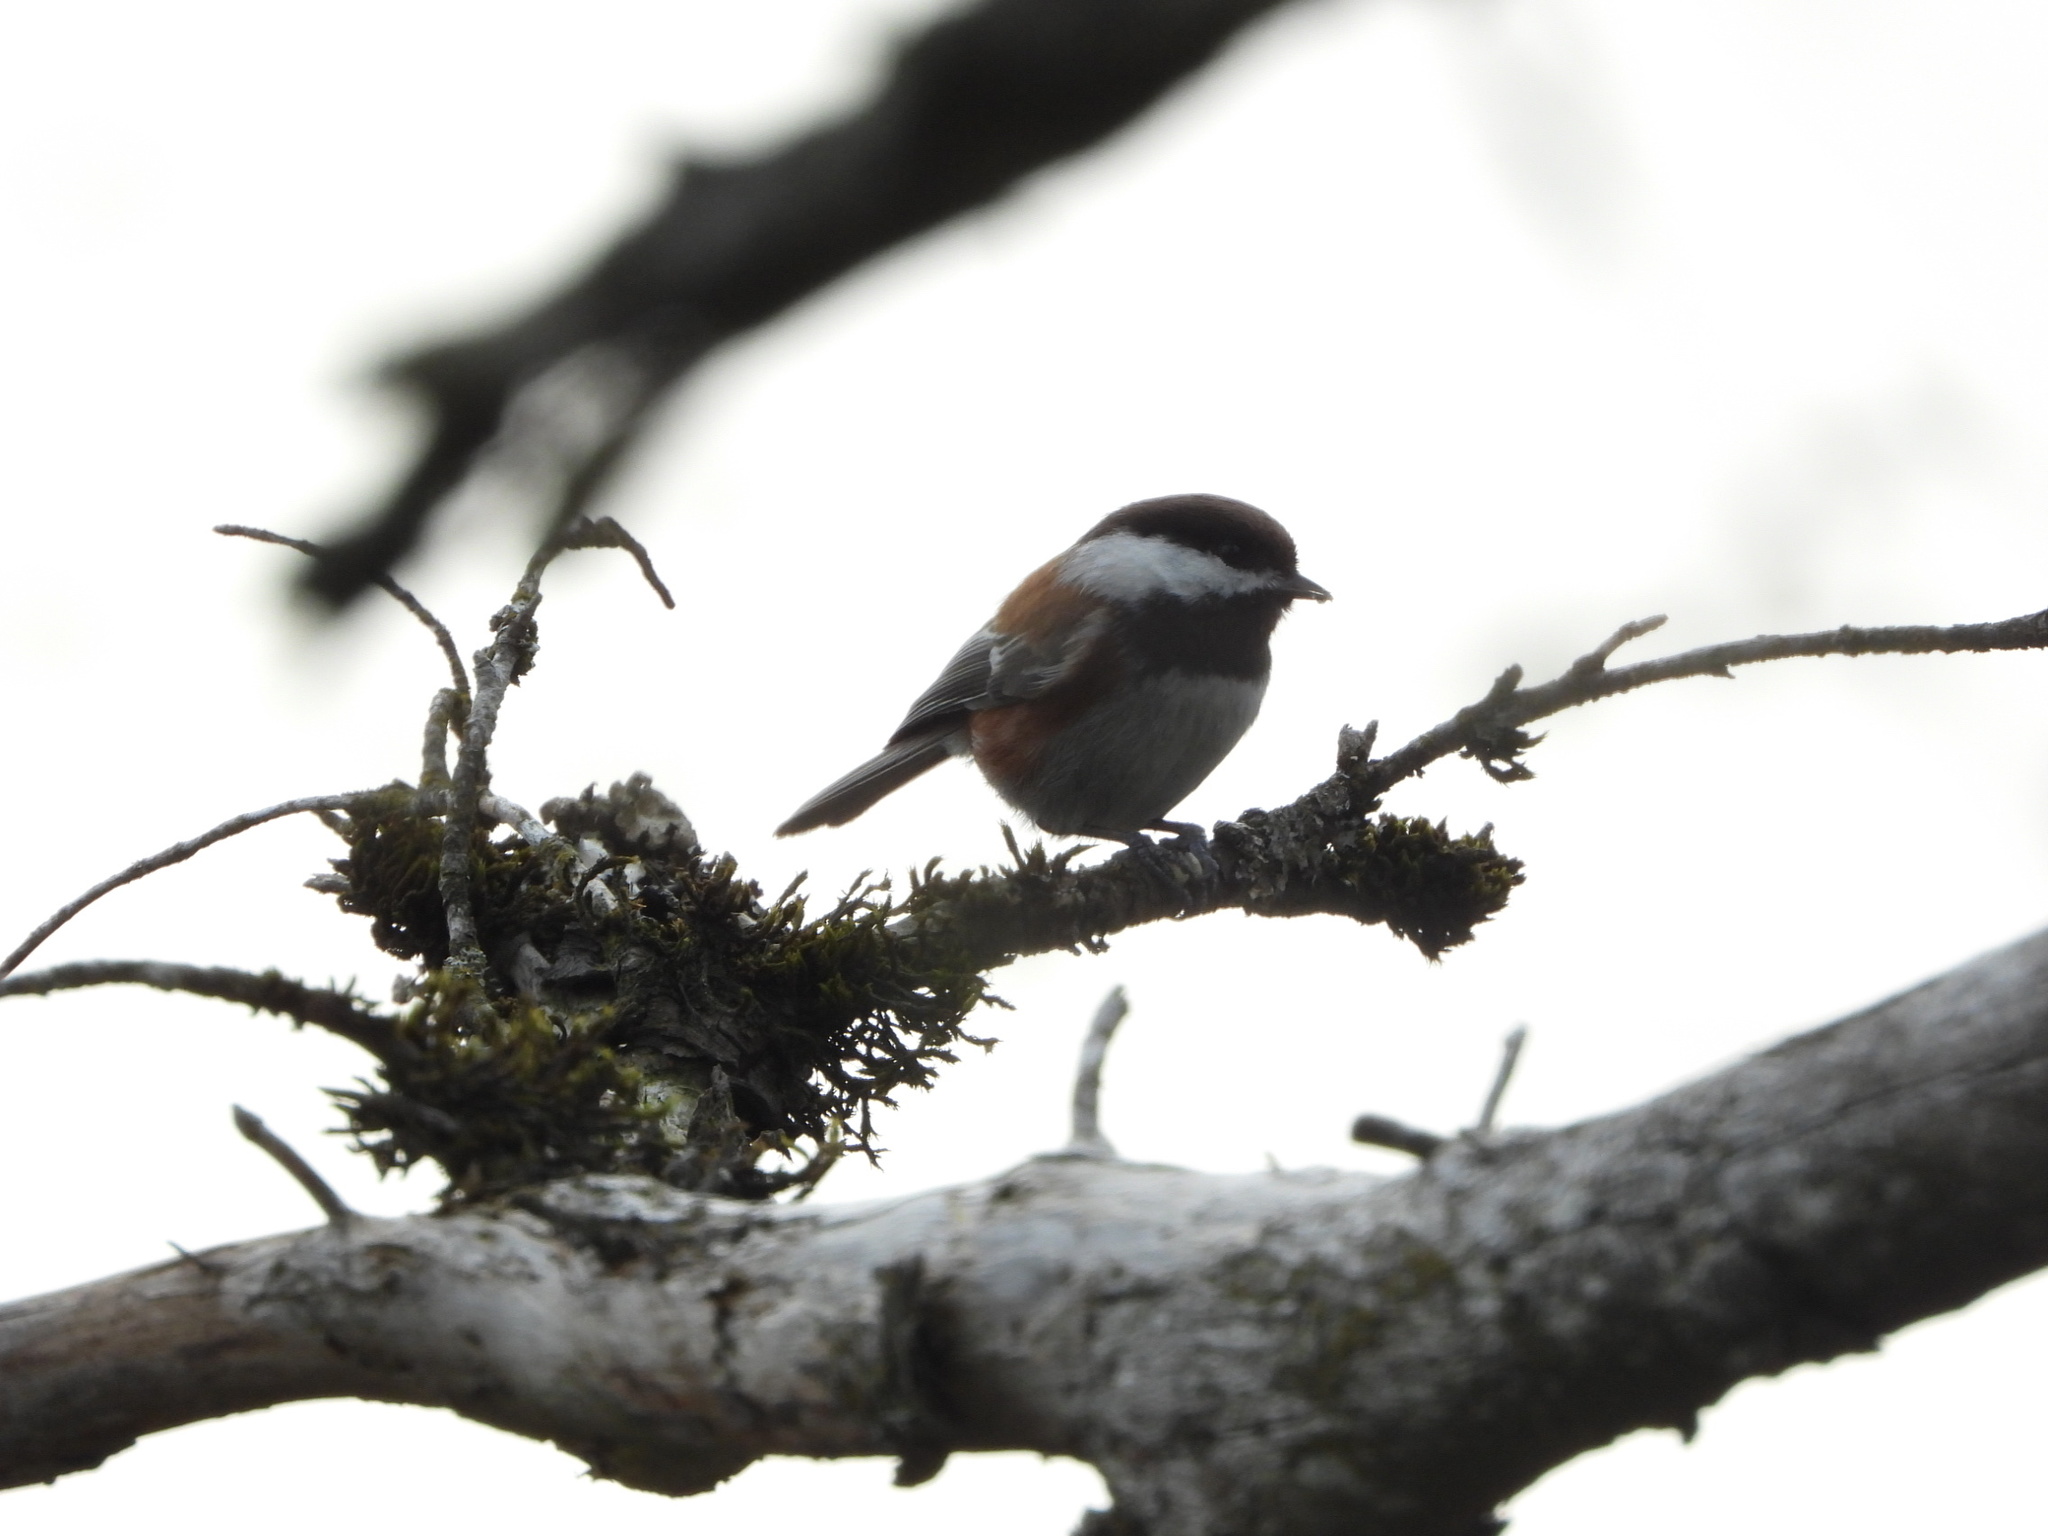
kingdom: Animalia
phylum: Chordata
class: Aves
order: Passeriformes
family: Paridae
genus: Poecile
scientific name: Poecile rufescens
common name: Chestnut-backed chickadee
